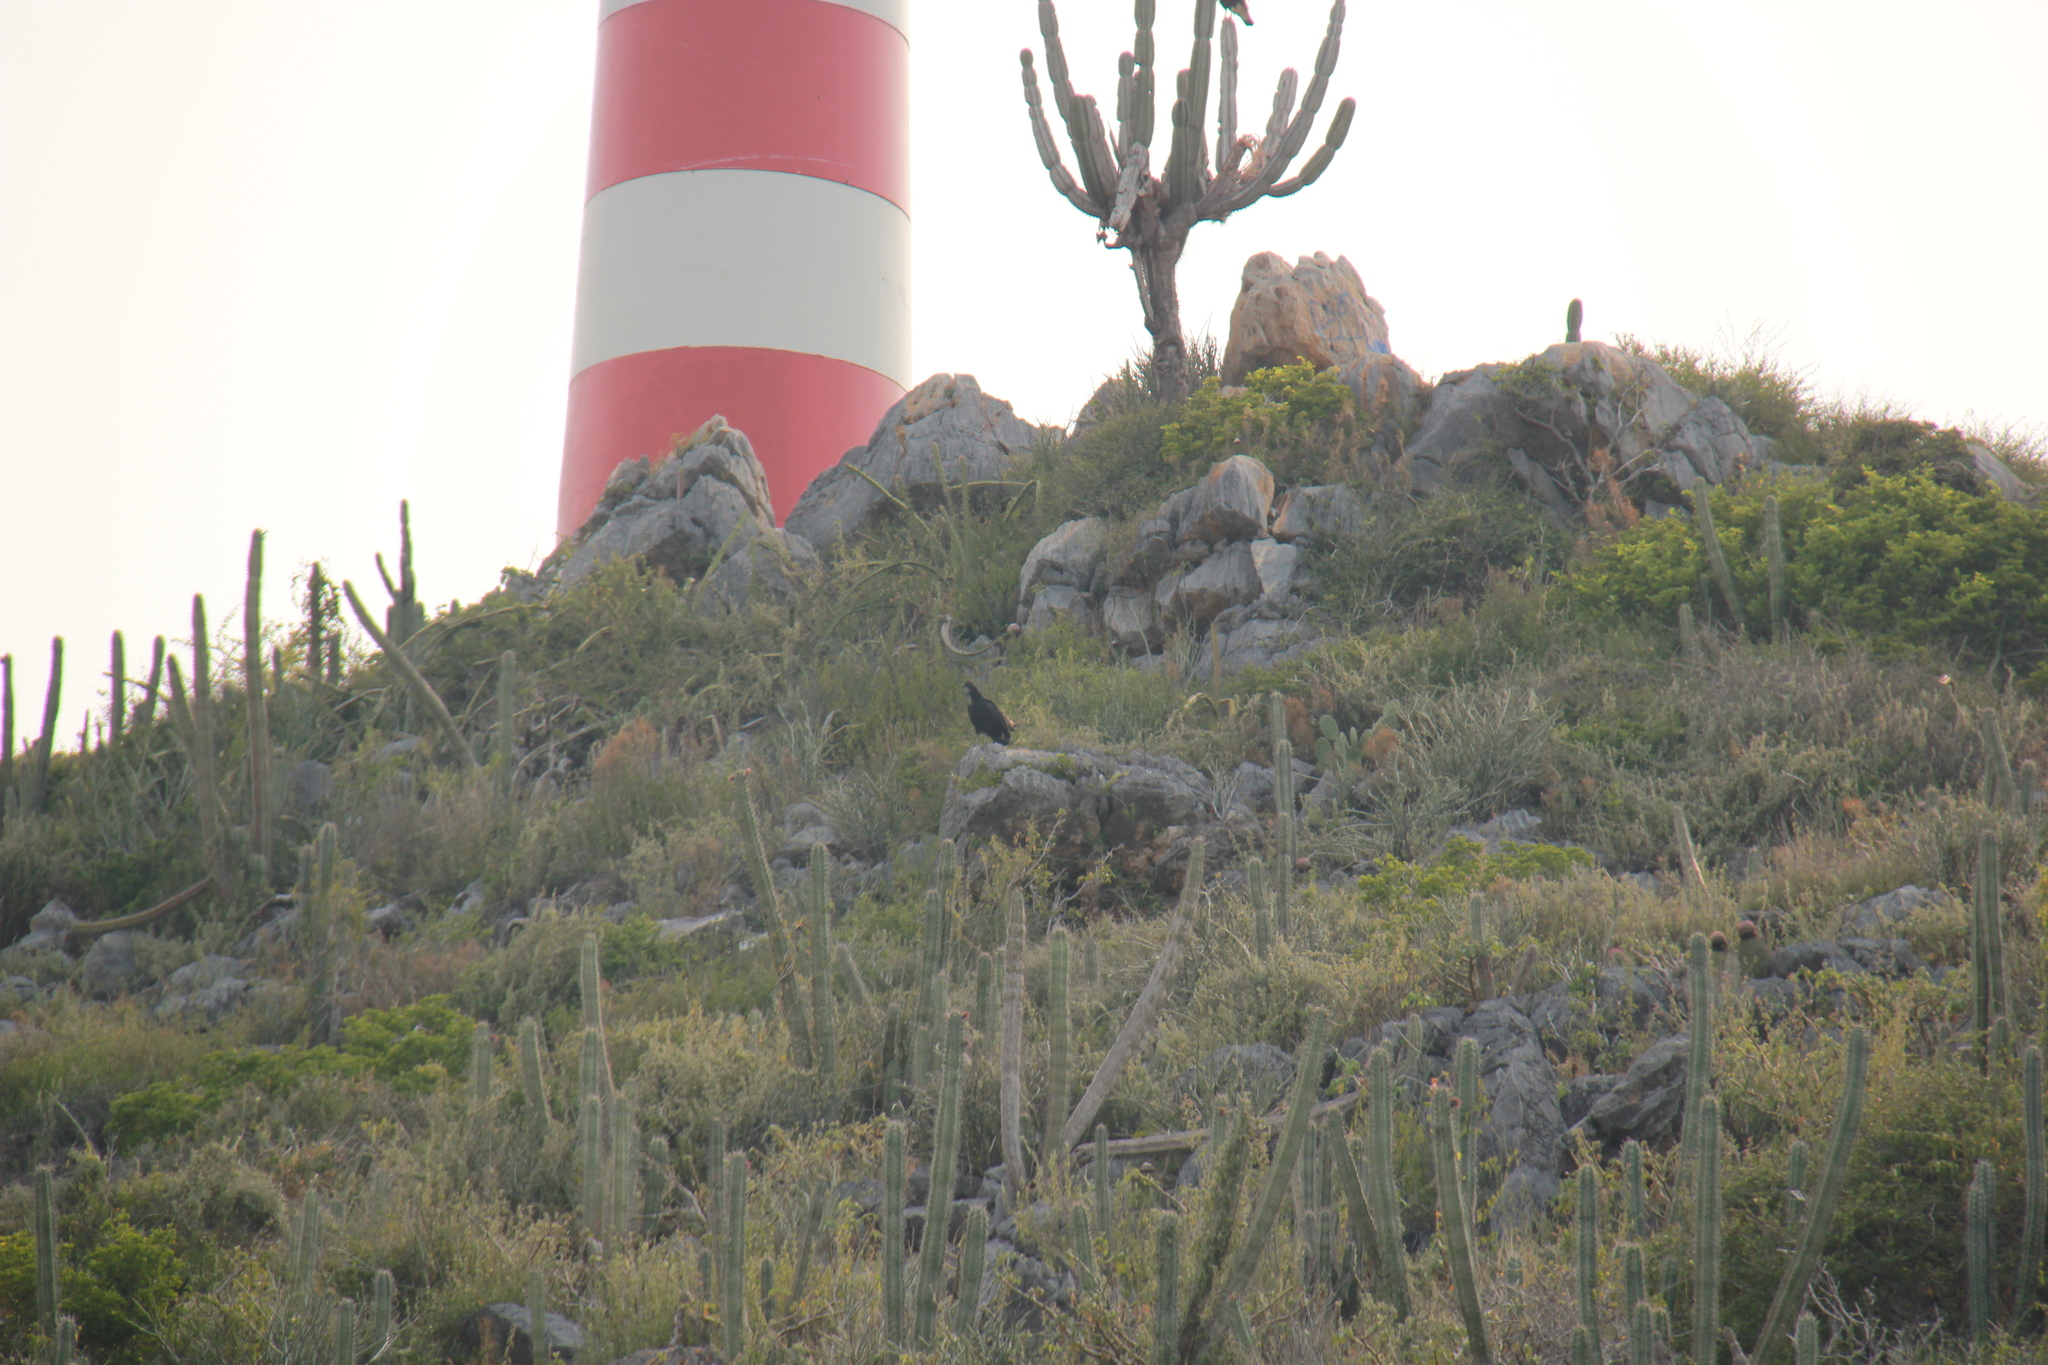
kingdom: Animalia
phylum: Chordata
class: Aves
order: Accipitriformes
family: Cathartidae
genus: Coragyps
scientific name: Coragyps atratus
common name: Black vulture
